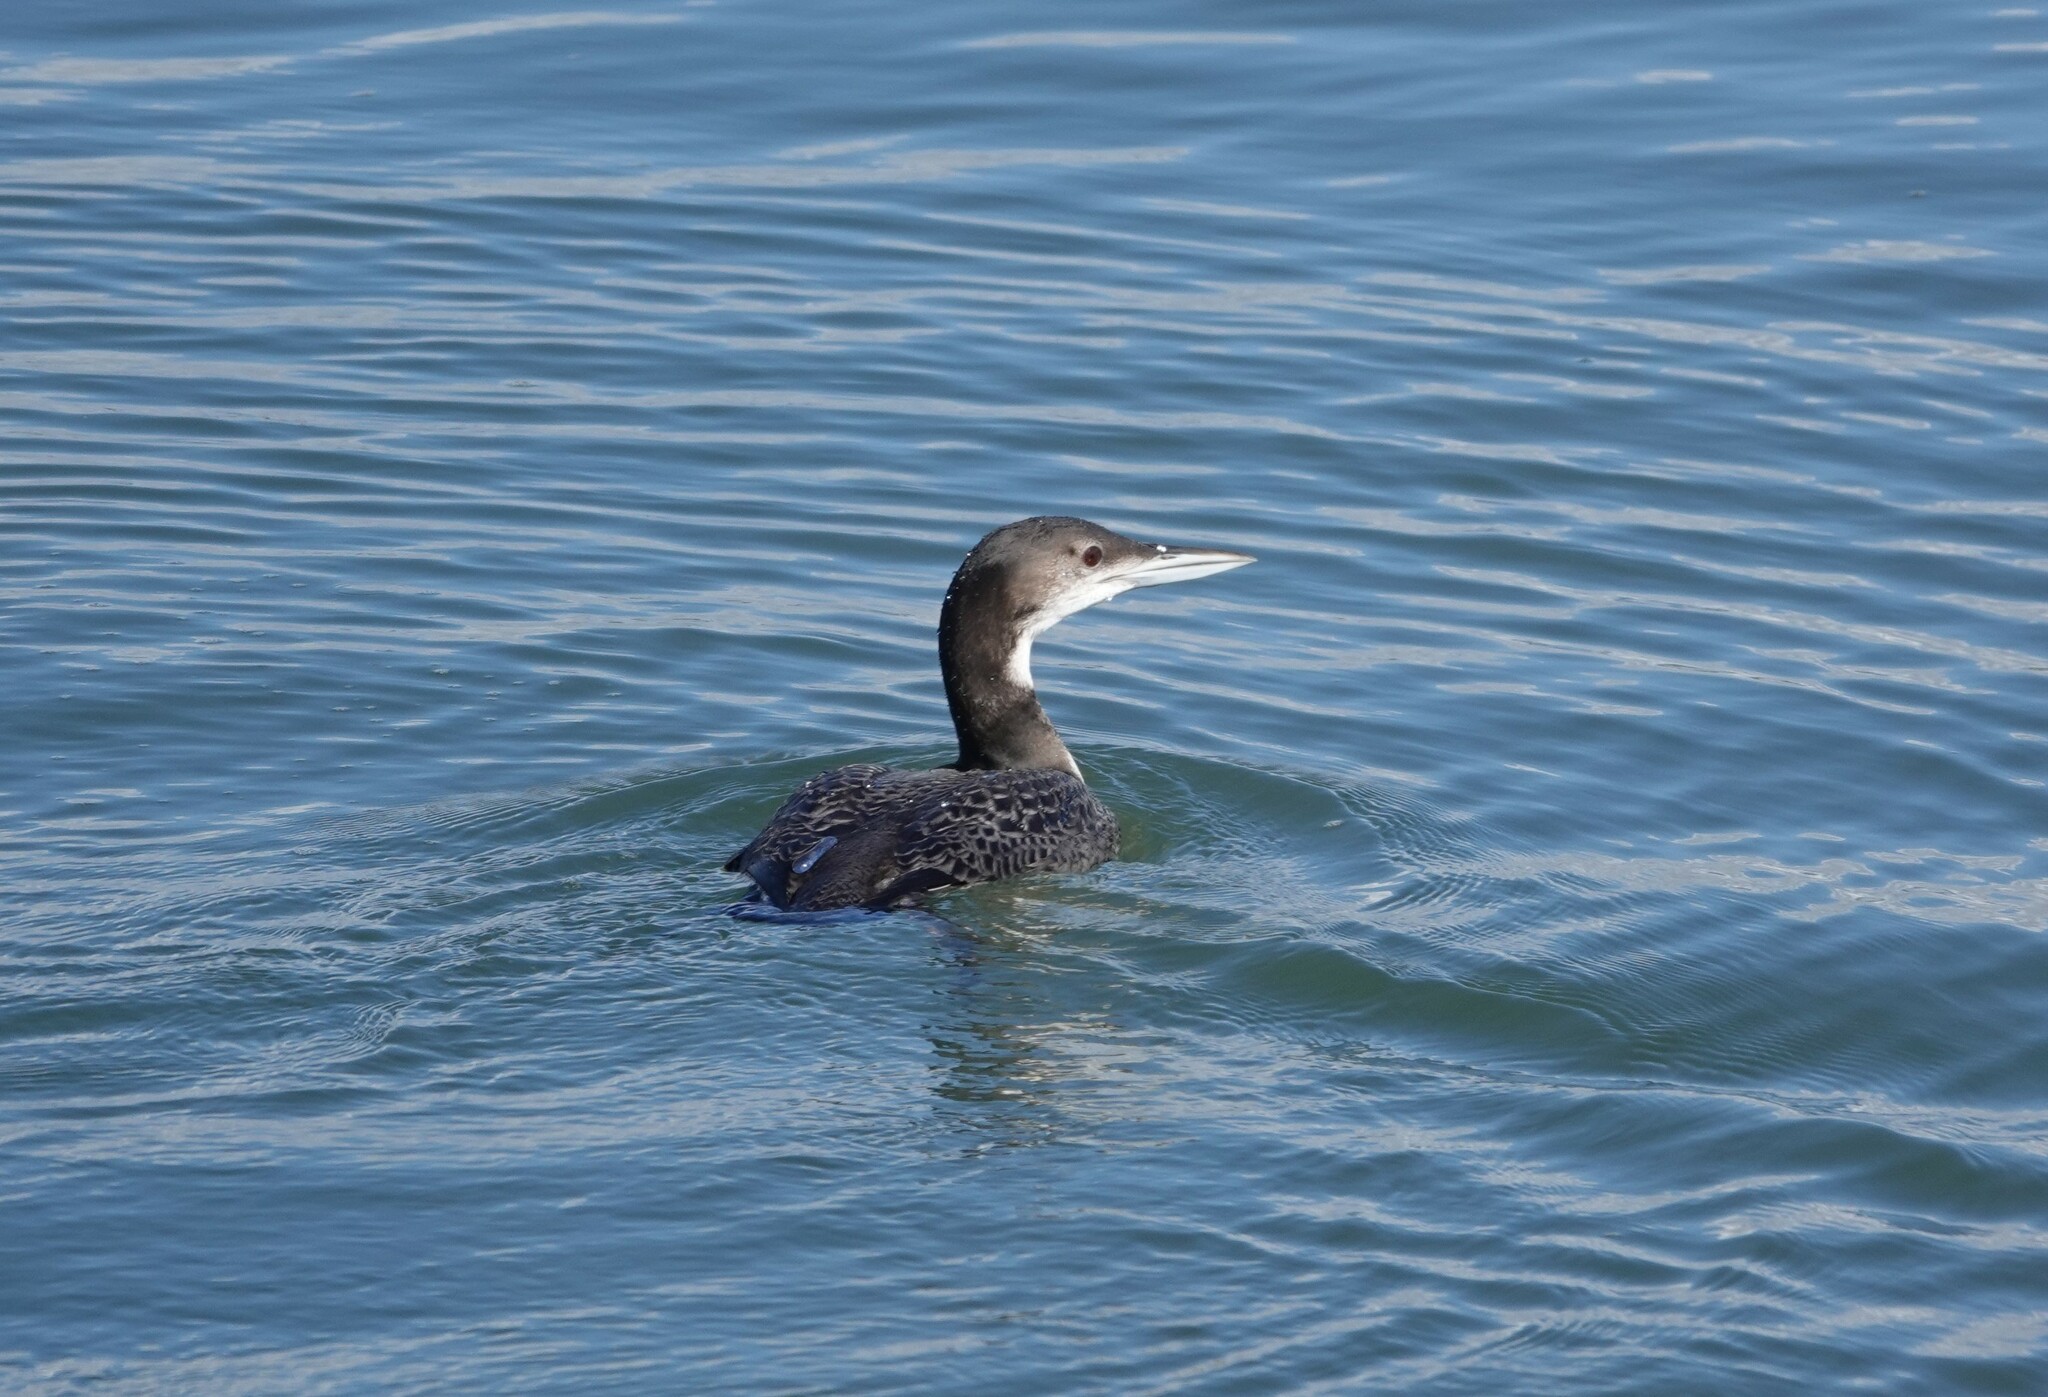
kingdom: Animalia
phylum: Chordata
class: Aves
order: Gaviiformes
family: Gaviidae
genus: Gavia
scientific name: Gavia immer
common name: Common loon
